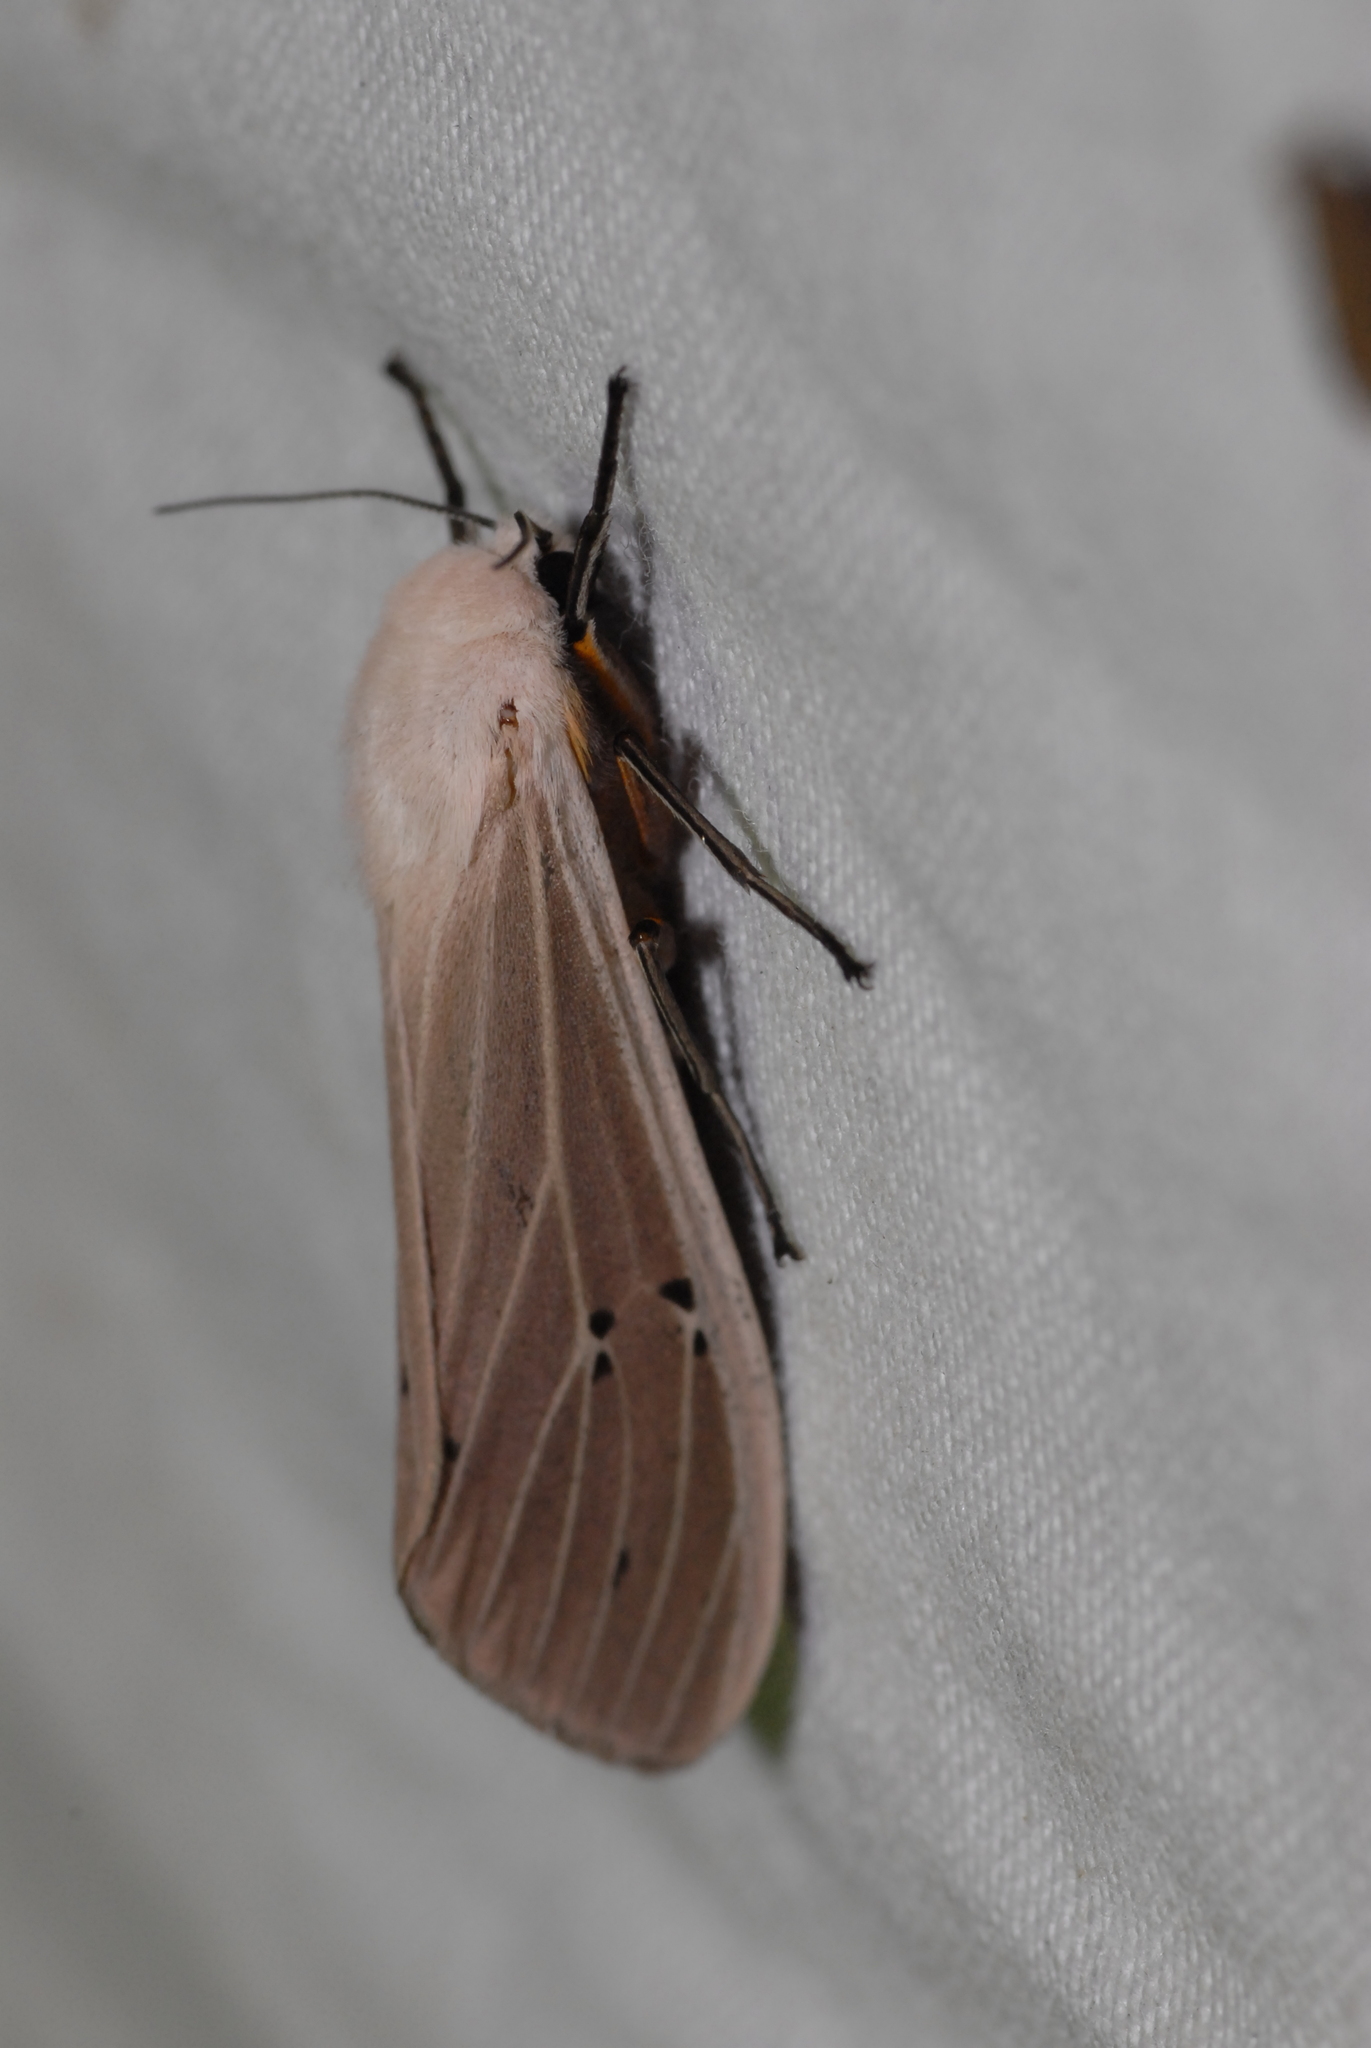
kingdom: Animalia
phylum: Arthropoda
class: Insecta
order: Lepidoptera
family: Erebidae
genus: Creatonotos
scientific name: Creatonotos transiens
